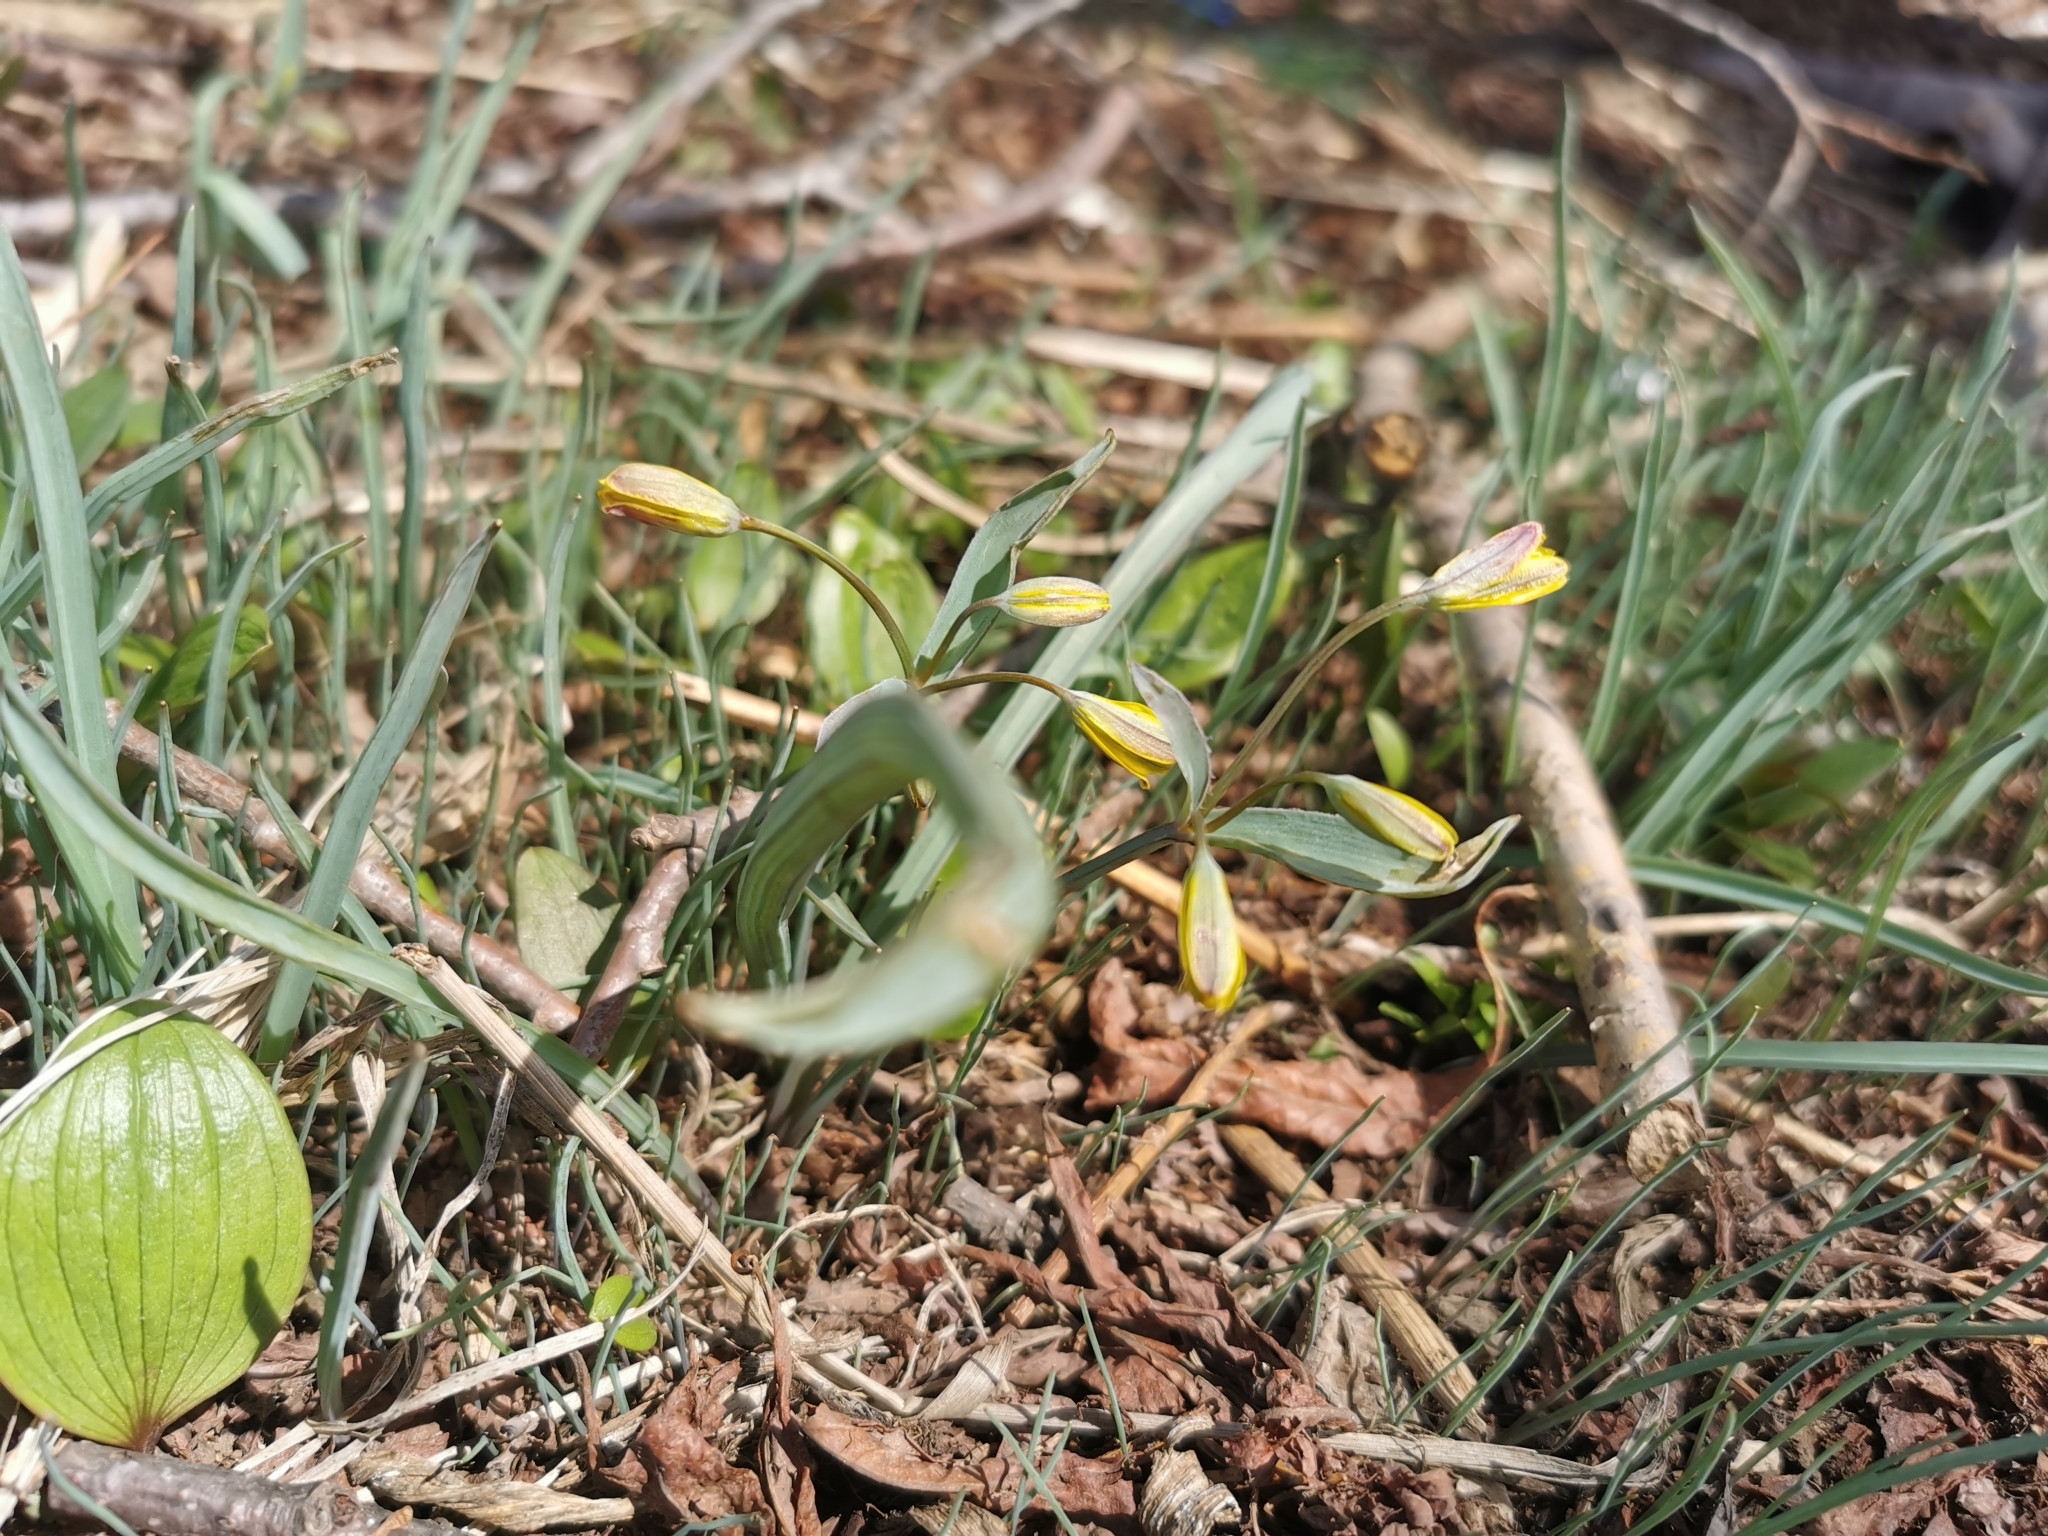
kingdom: Plantae
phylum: Tracheophyta
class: Liliopsida
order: Liliales
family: Liliaceae
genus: Gagea
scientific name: Gagea nakaiana
